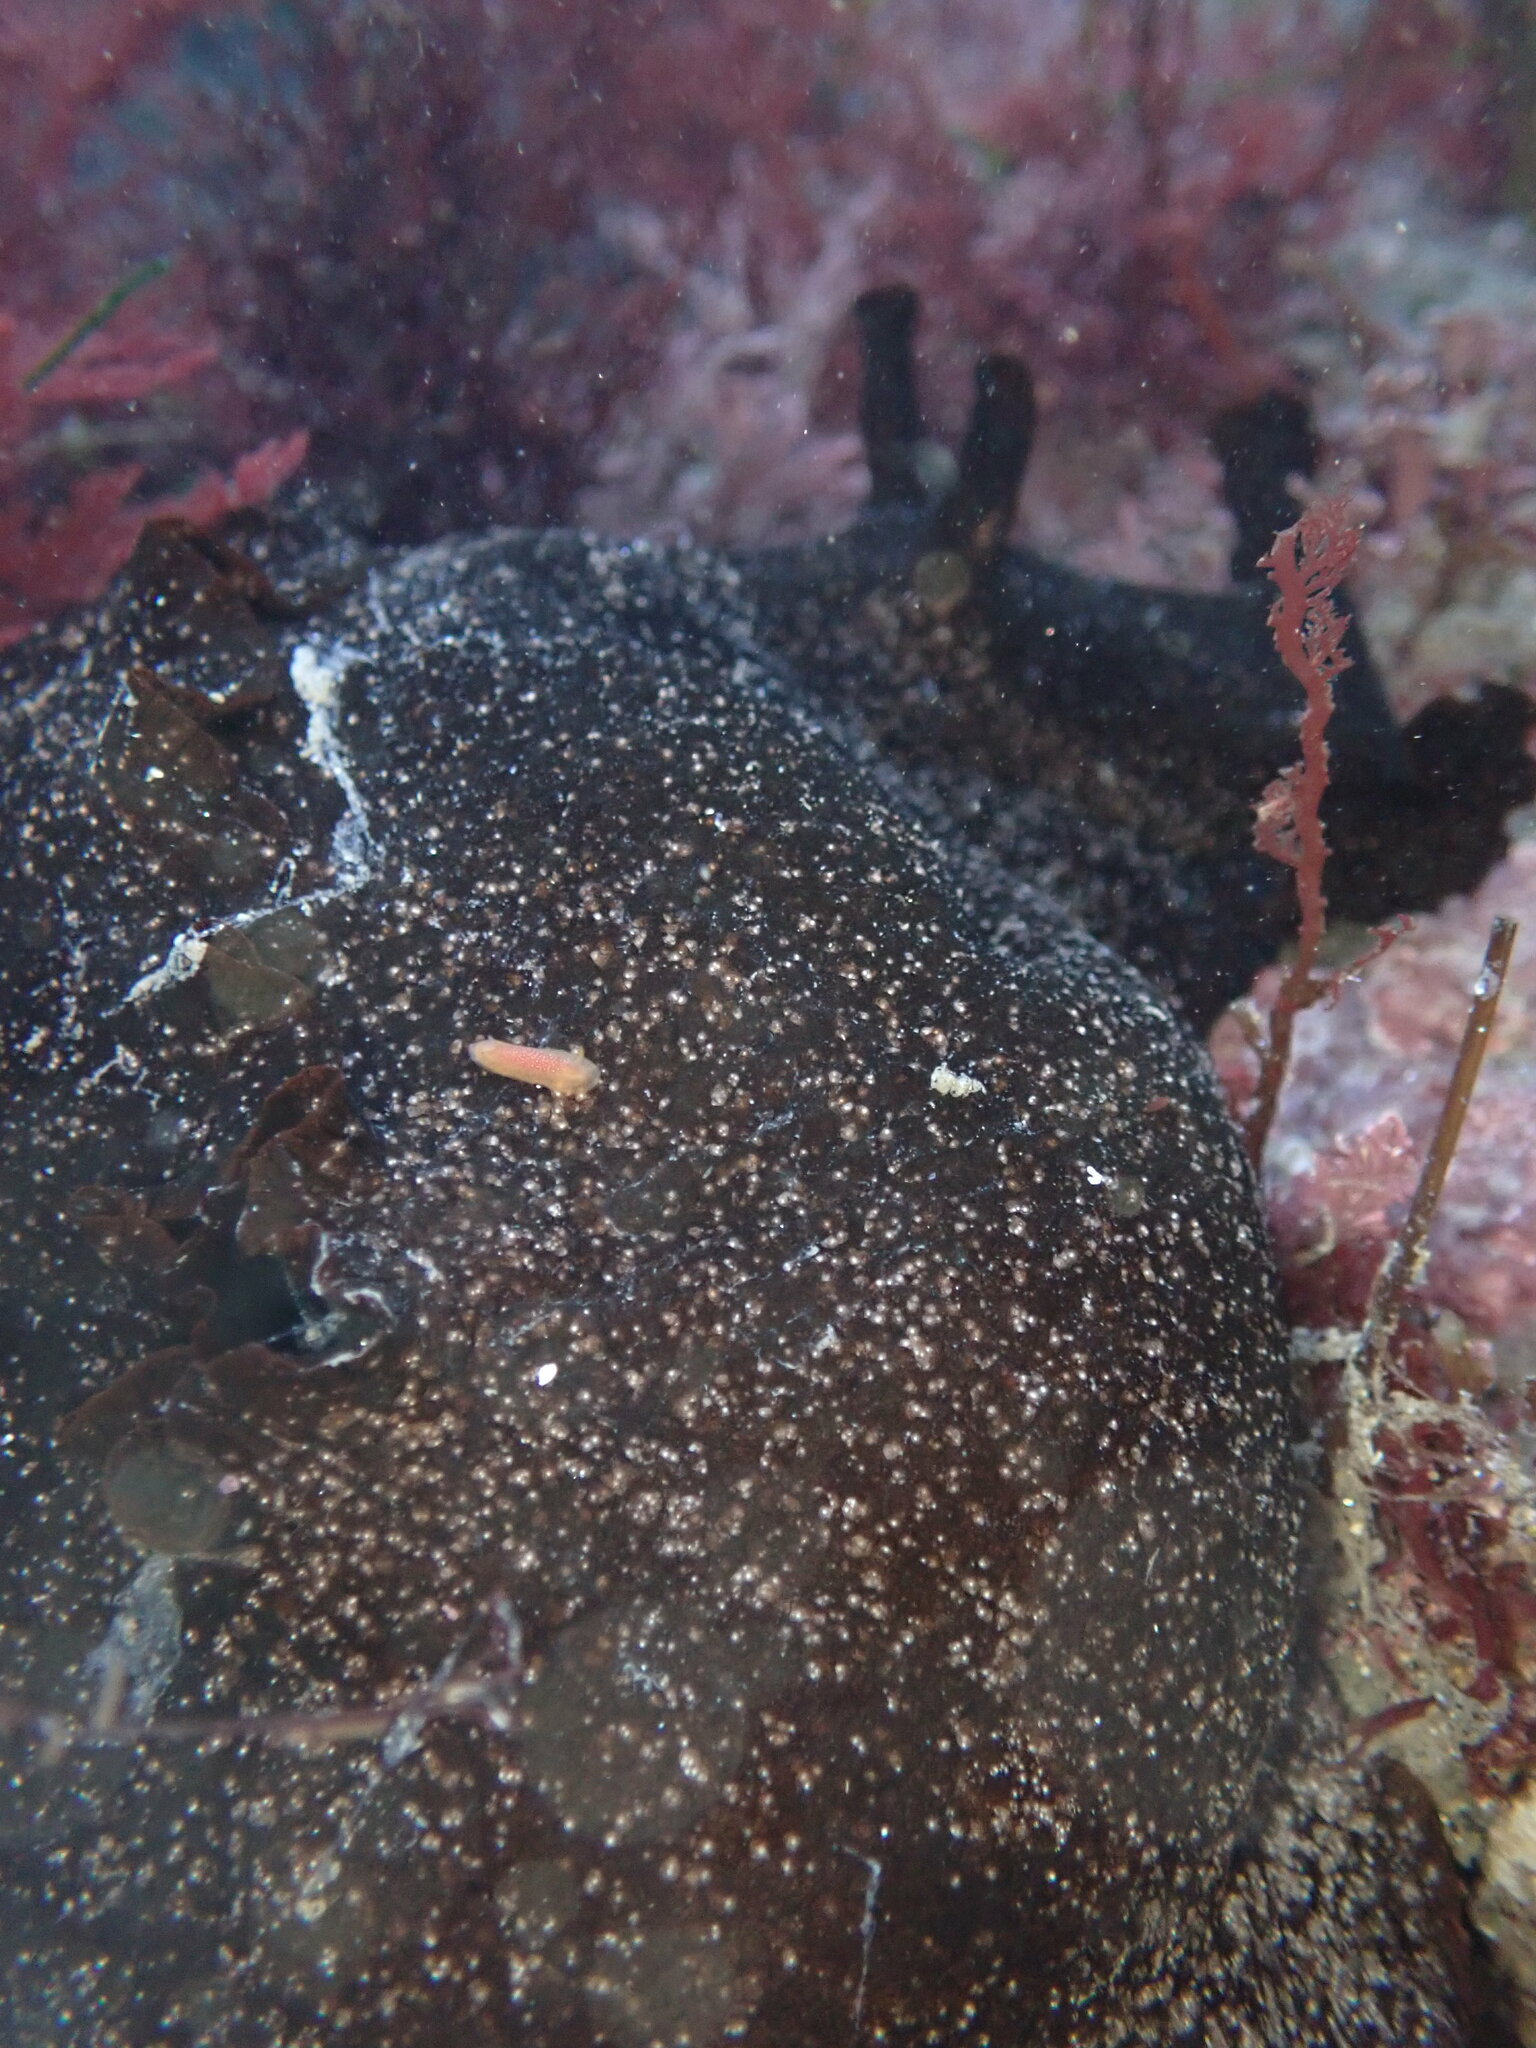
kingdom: Animalia
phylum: Mollusca
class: Gastropoda
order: Nudibranchia
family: Dendrodorididae
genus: Doriopsilla
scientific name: Doriopsilla albopunctata
